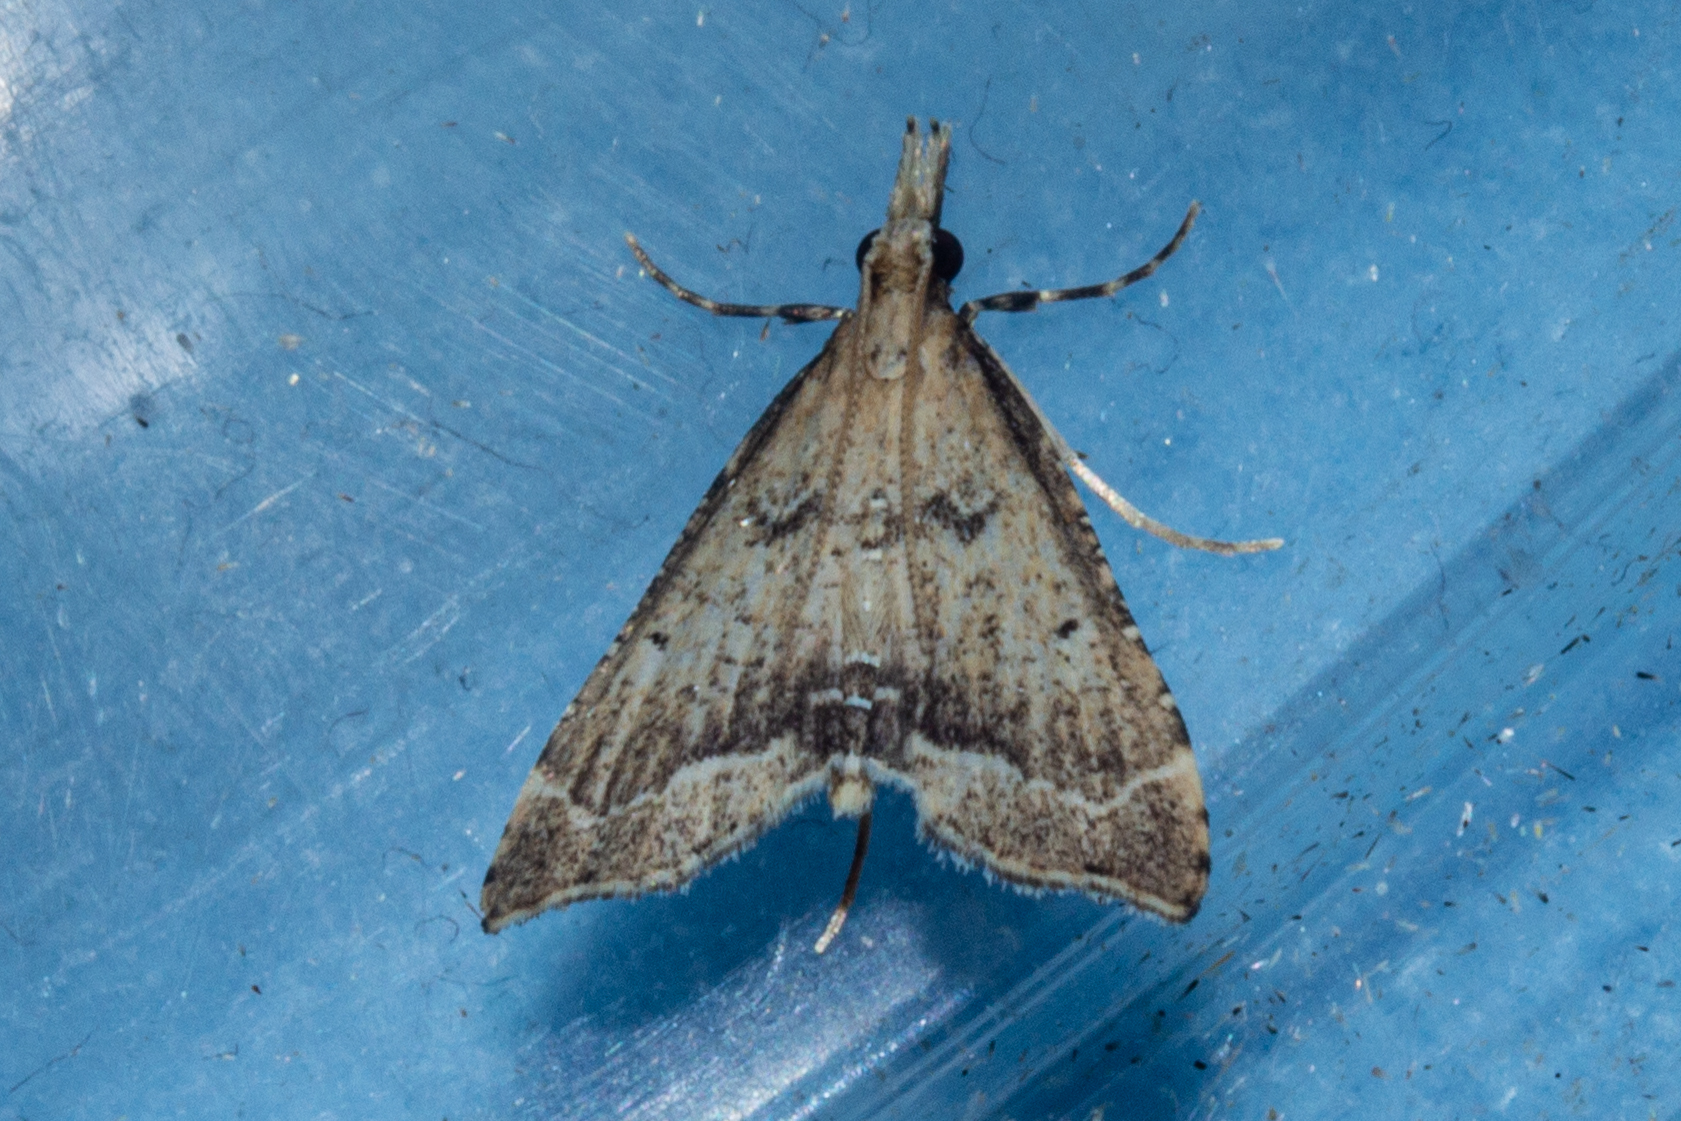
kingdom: Animalia
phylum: Arthropoda
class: Insecta
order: Lepidoptera
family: Crambidae
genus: Diplopseustis
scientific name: Diplopseustis perieresalis
